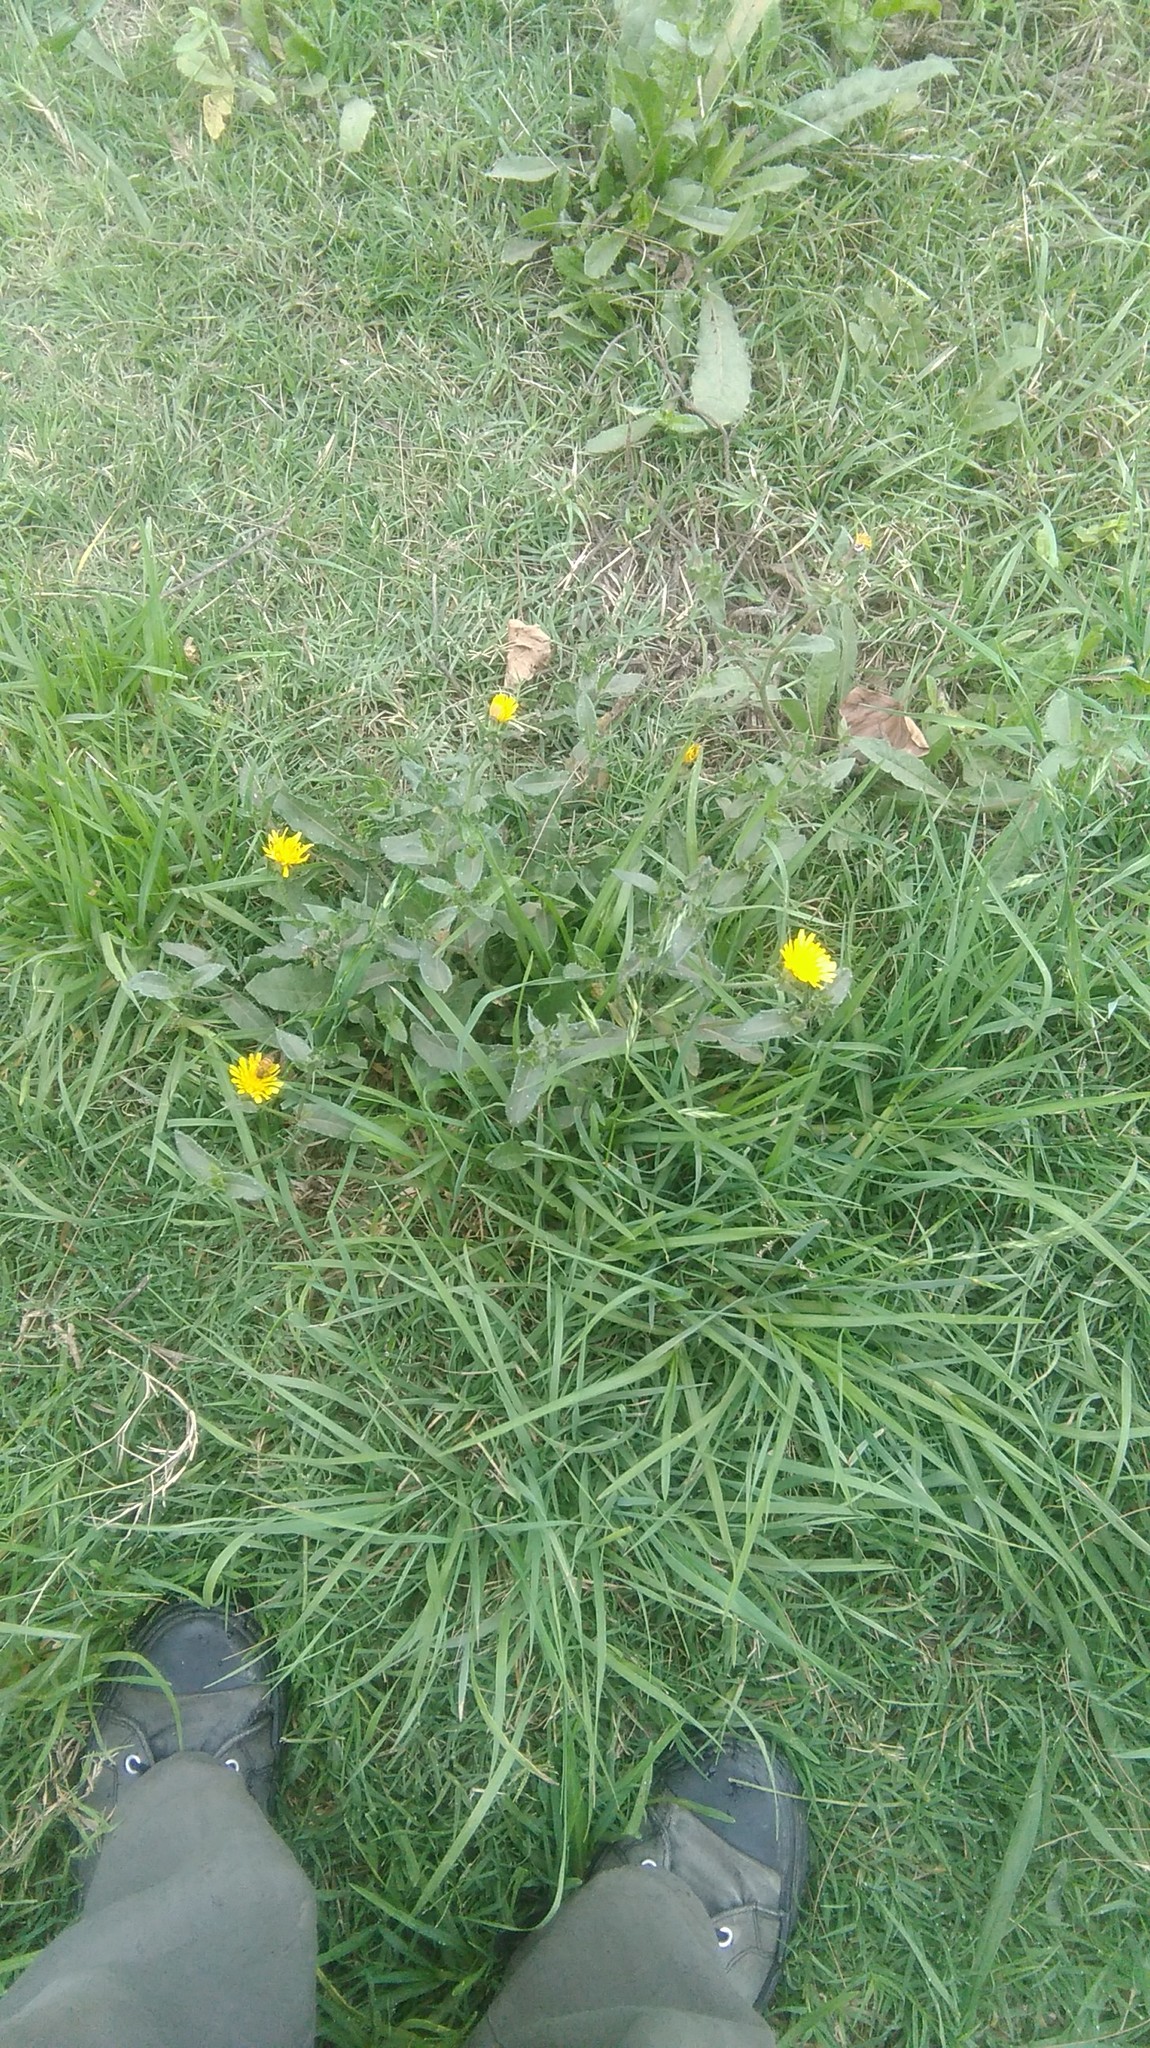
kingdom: Plantae
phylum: Tracheophyta
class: Magnoliopsida
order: Asterales
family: Asteraceae
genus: Helminthotheca
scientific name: Helminthotheca echioides
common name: Ox-tongue
